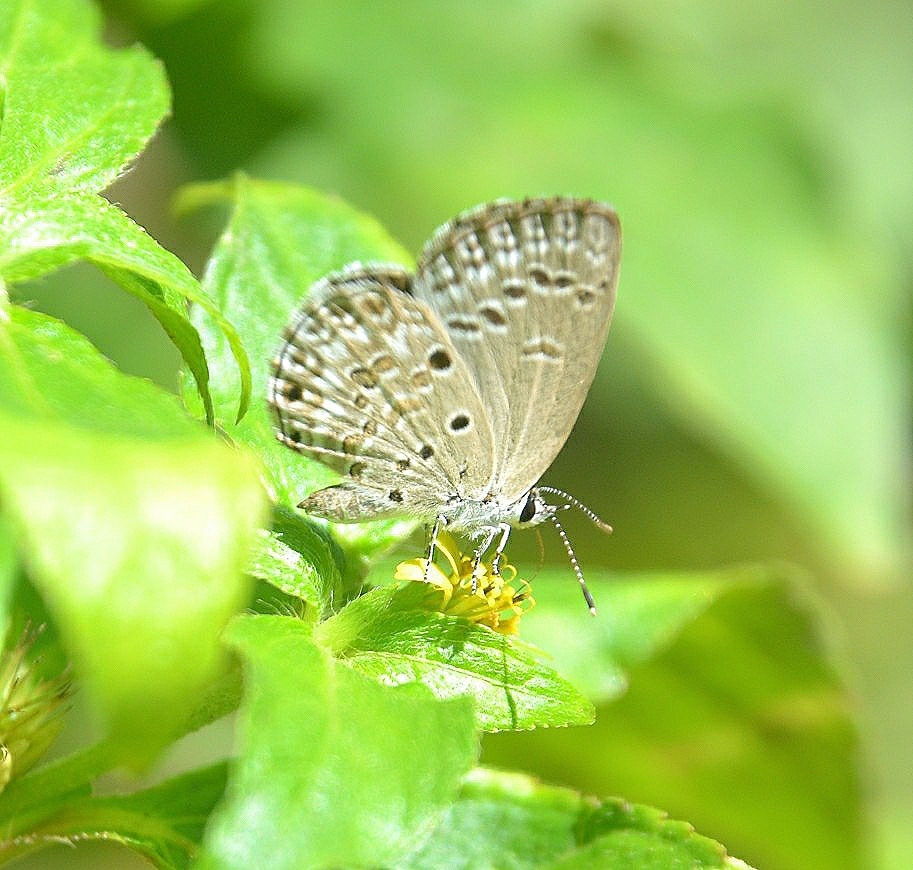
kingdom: Animalia
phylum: Arthropoda
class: Insecta
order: Lepidoptera
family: Lycaenidae
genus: Chilades
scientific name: Chilades laius
